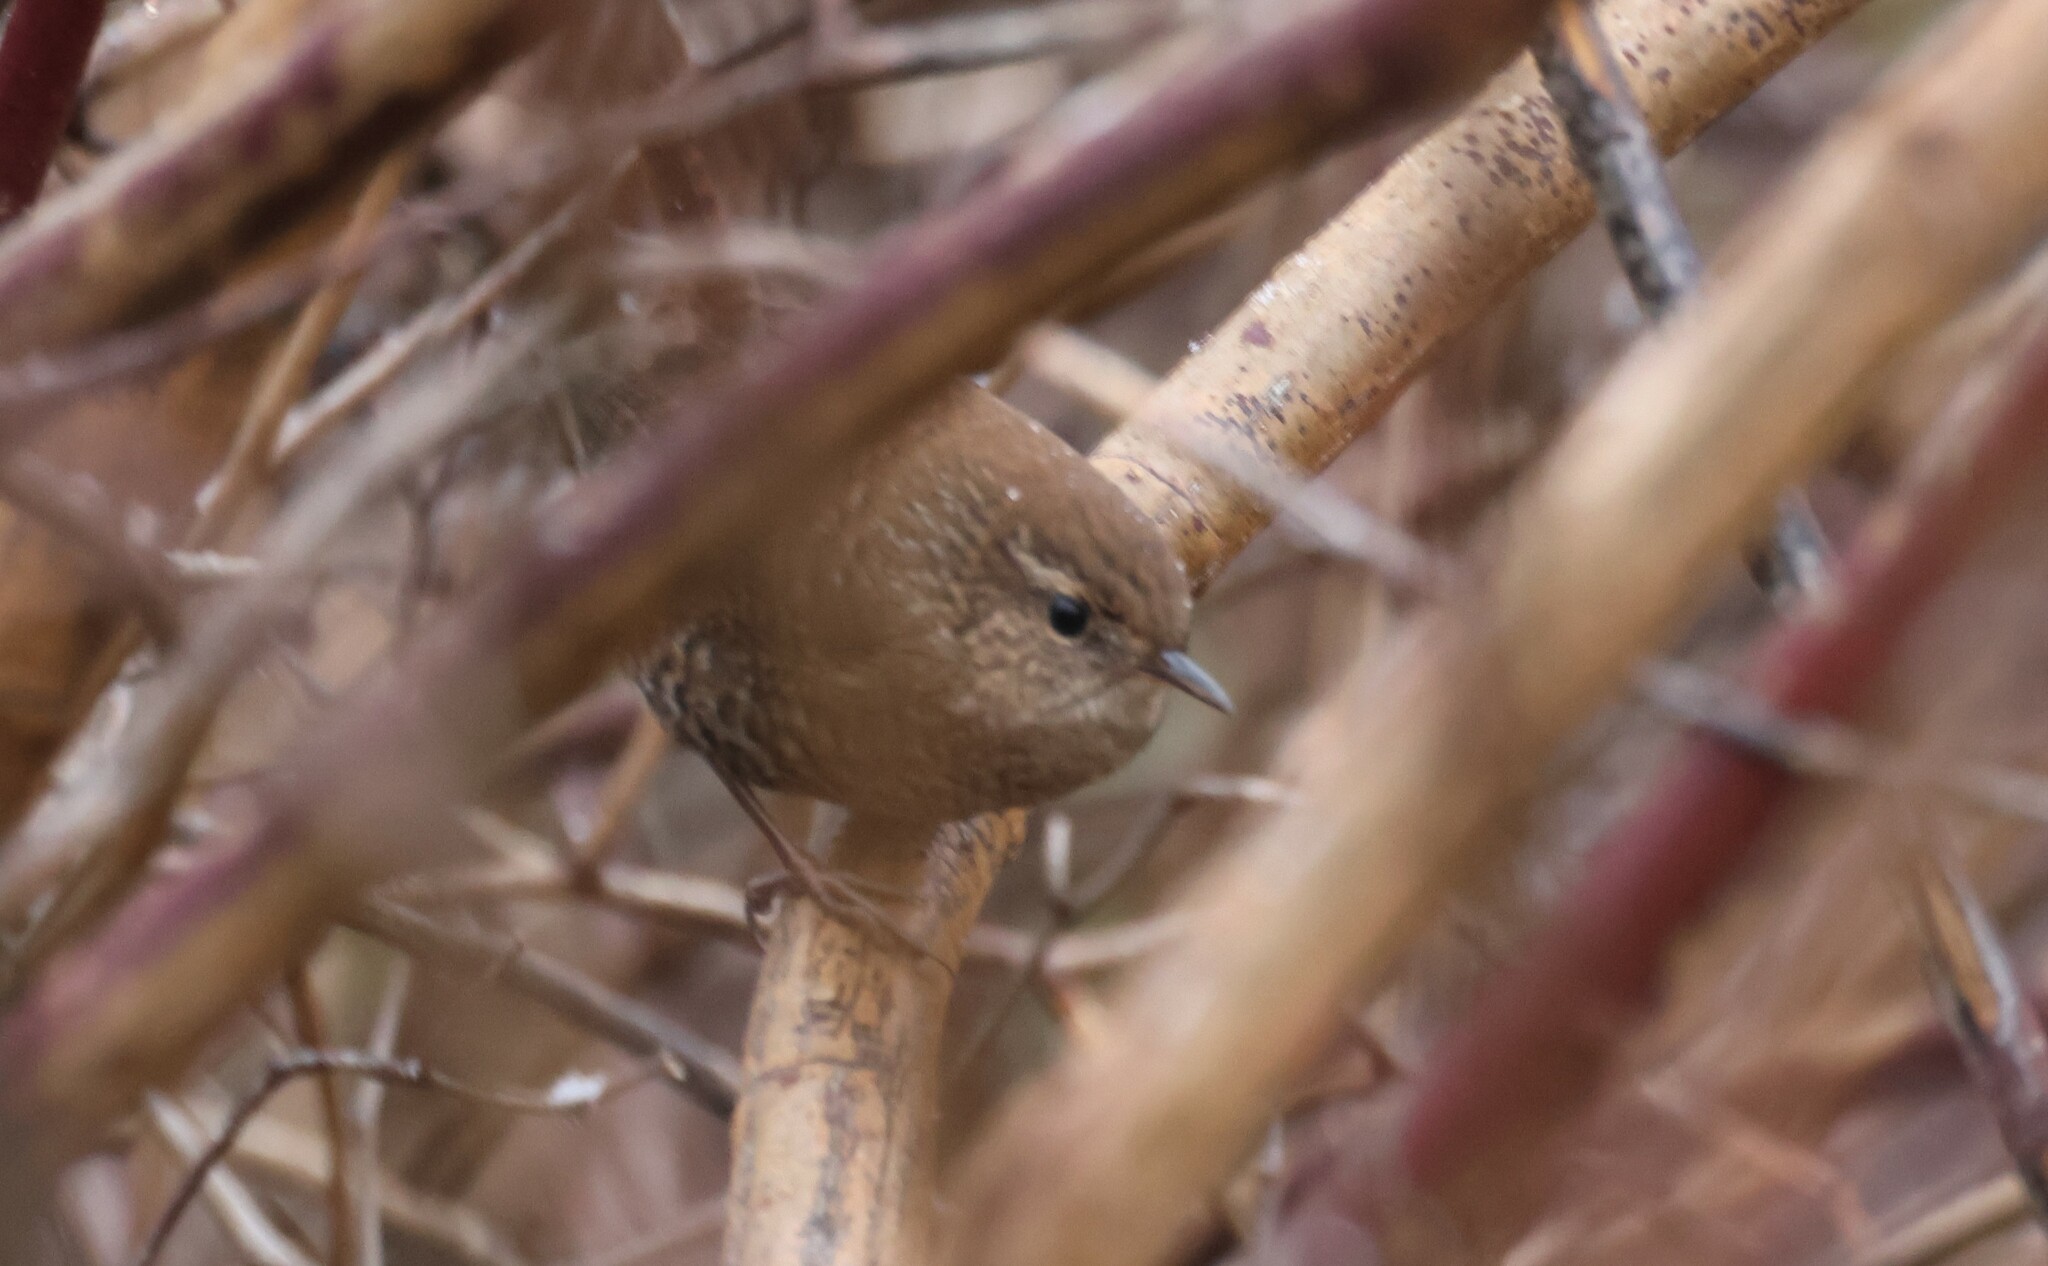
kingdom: Animalia
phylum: Chordata
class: Aves
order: Passeriformes
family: Troglodytidae
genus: Troglodytes
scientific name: Troglodytes hiemalis
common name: Winter wren
